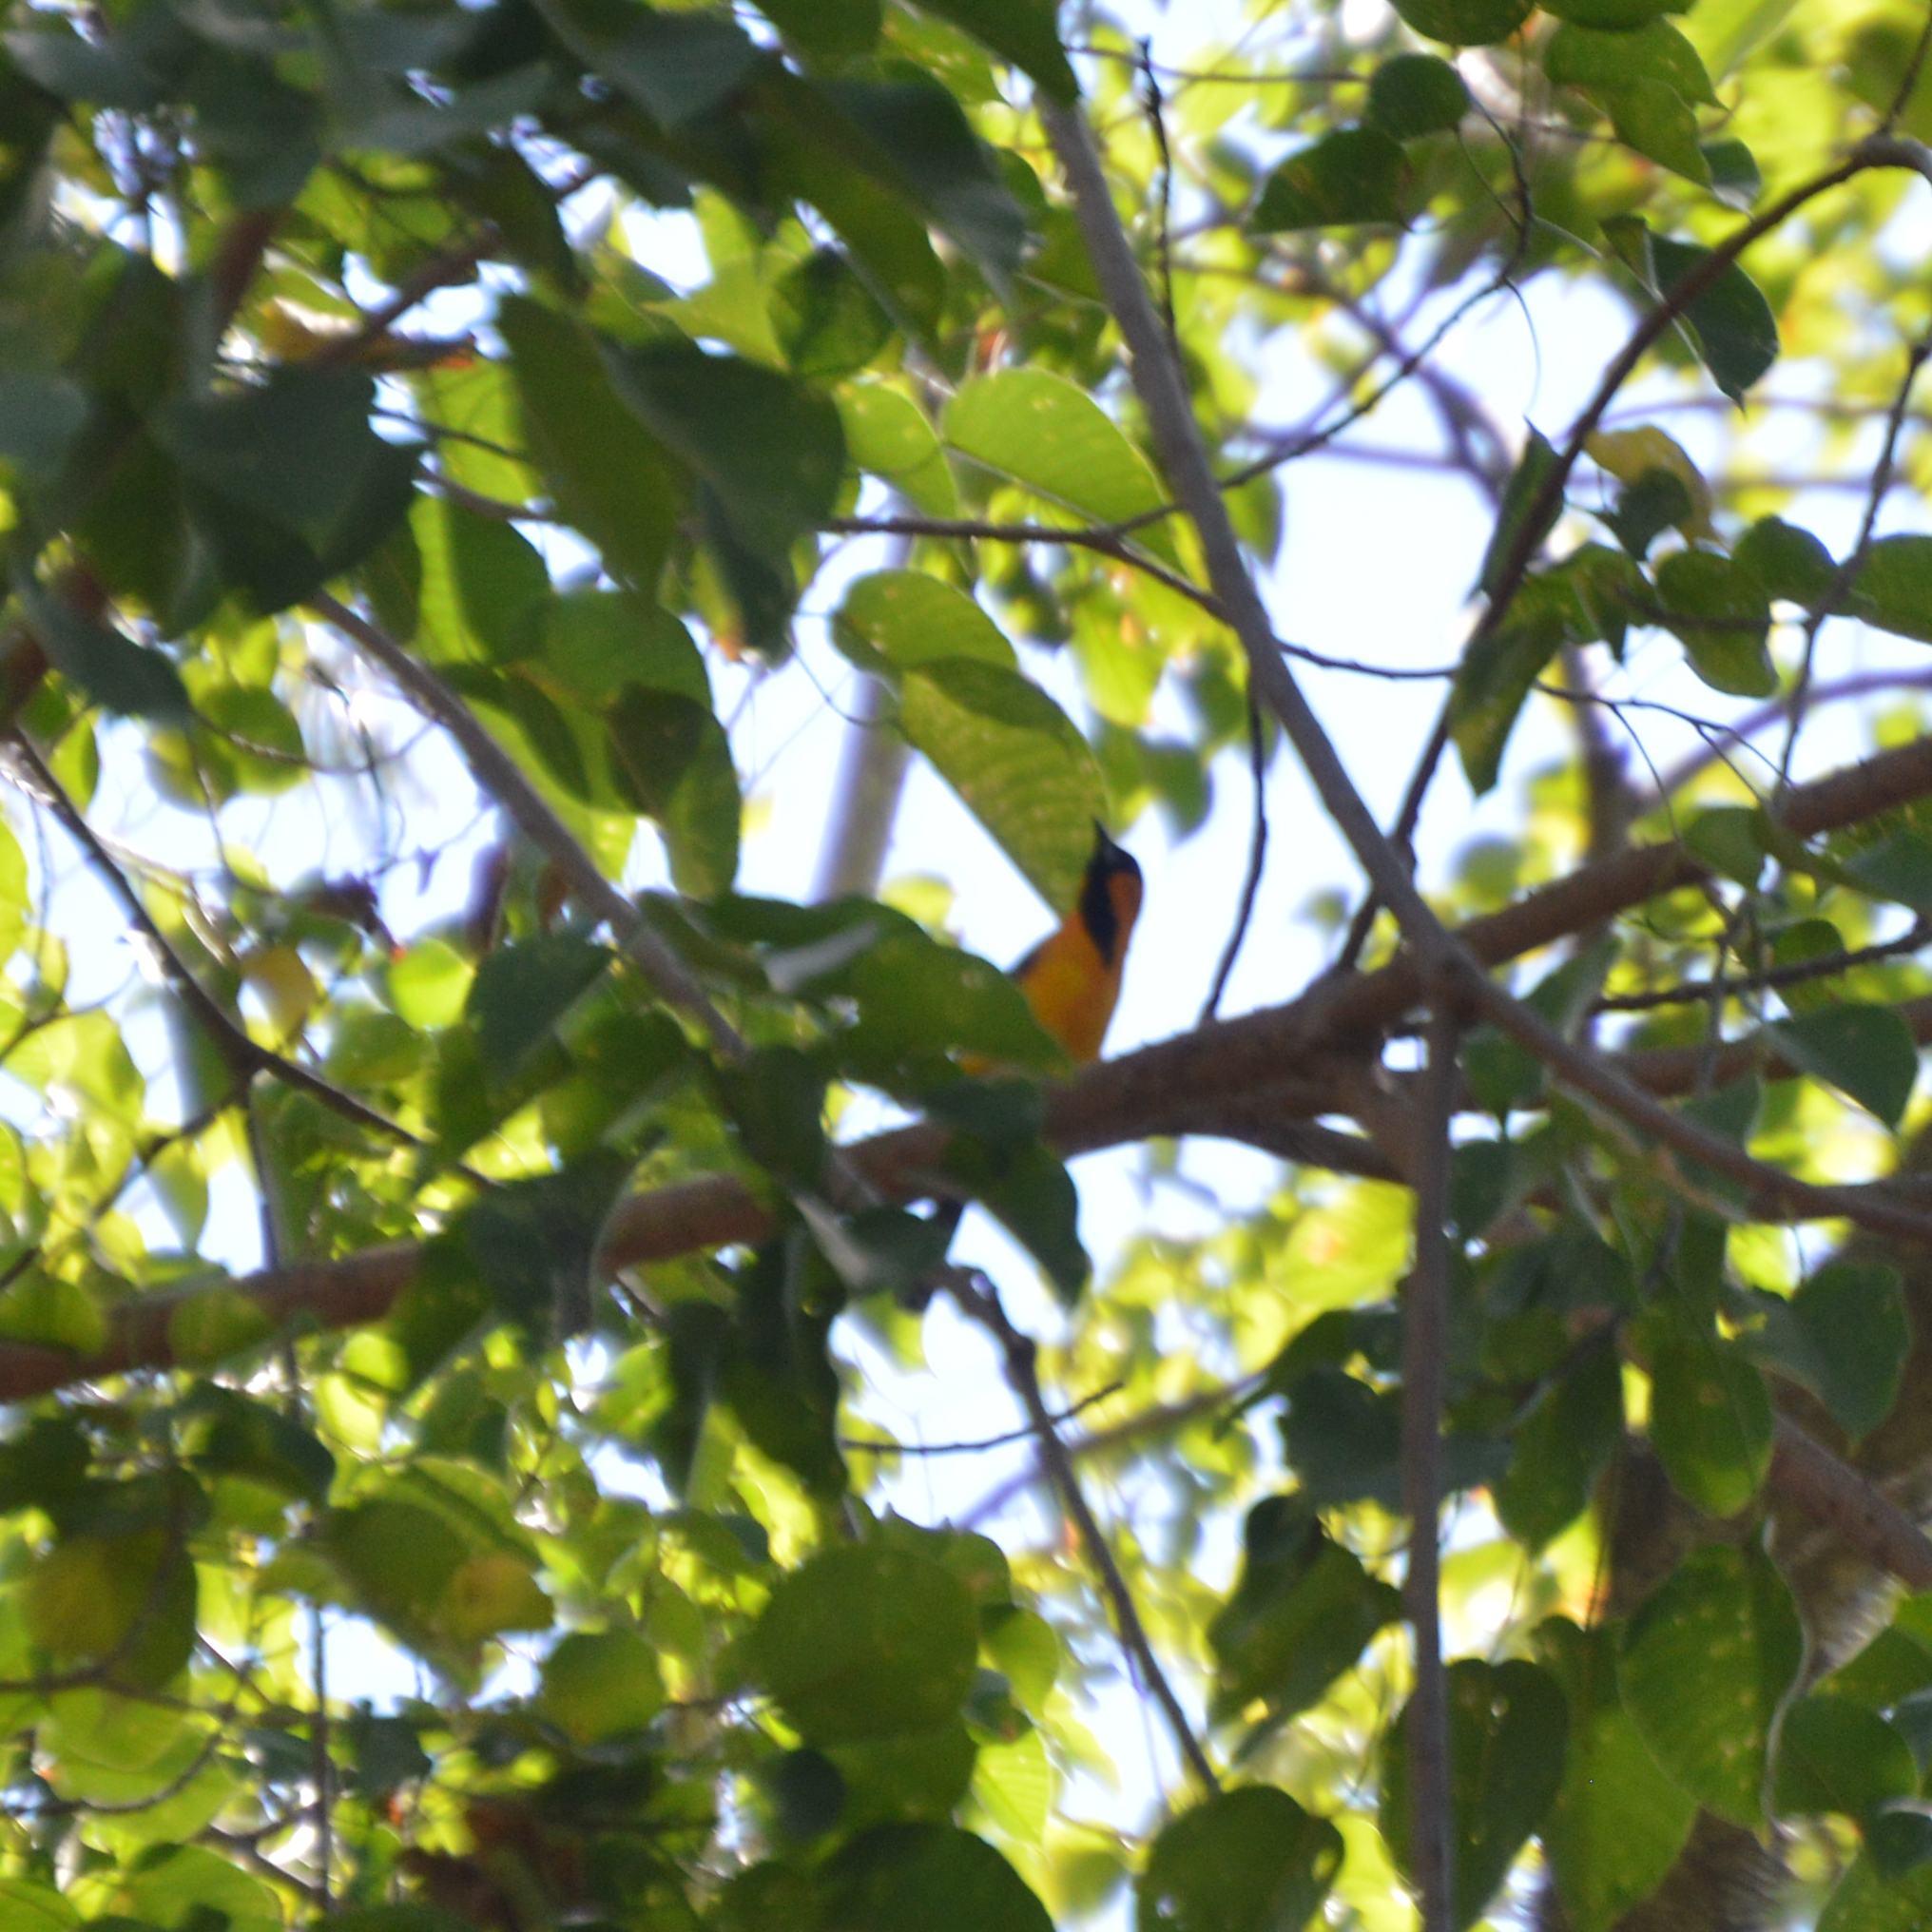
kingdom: Animalia
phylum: Chordata
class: Aves
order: Passeriformes
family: Icteridae
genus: Icterus
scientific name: Icterus pustulatus
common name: Streak-backed oriole
